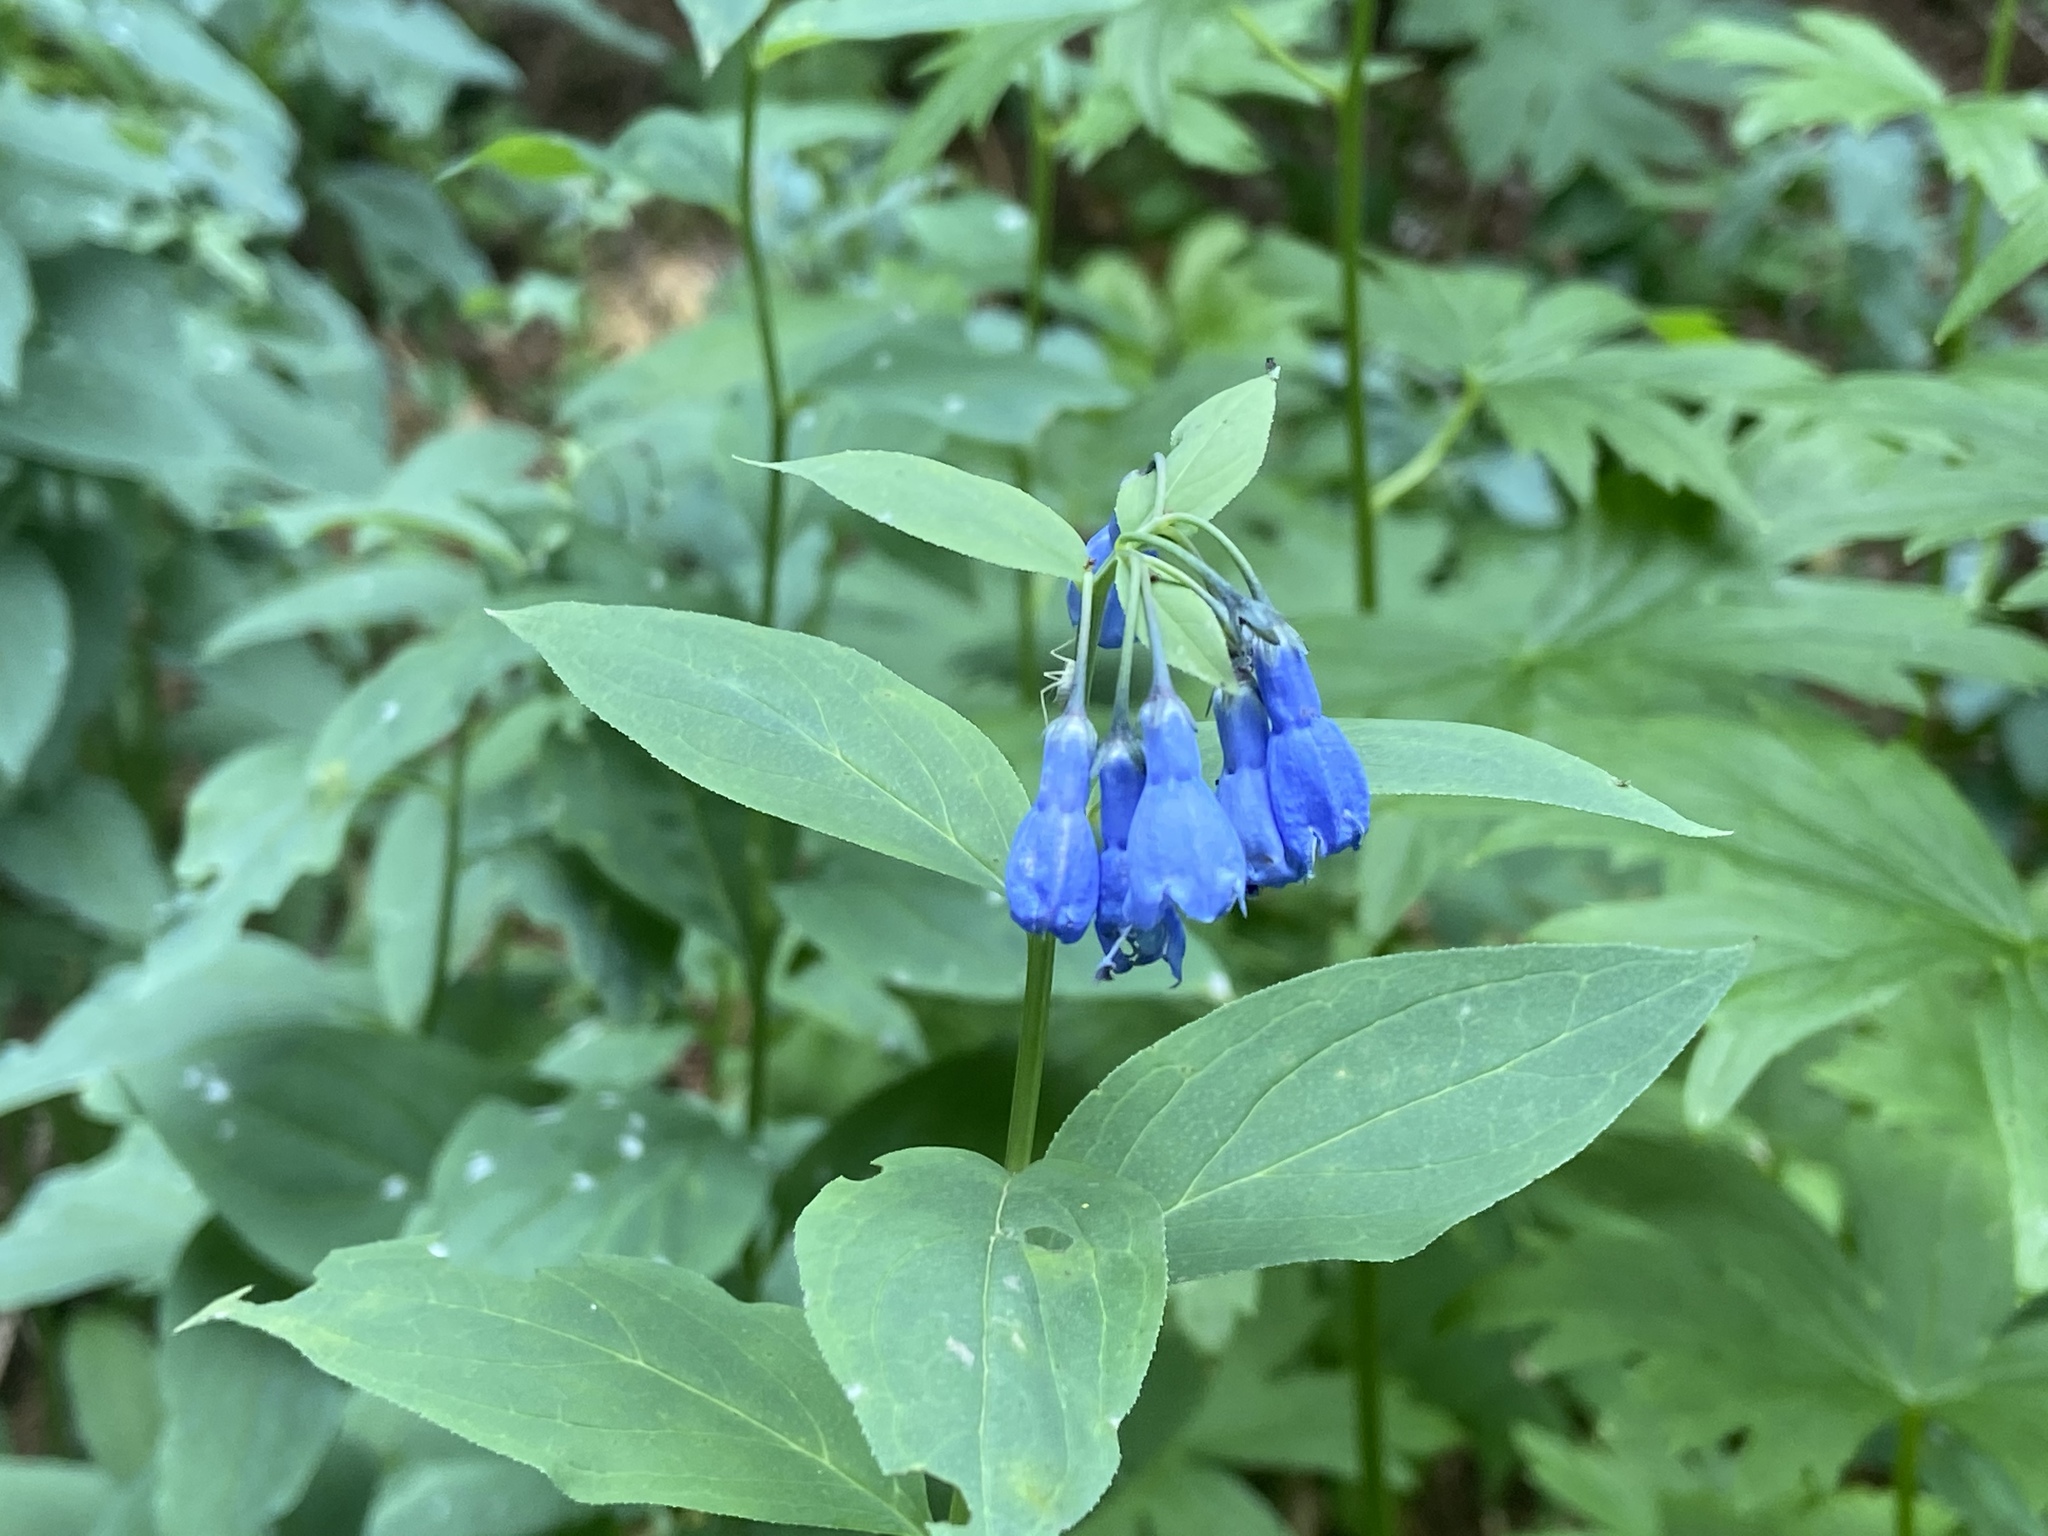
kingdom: Plantae
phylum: Tracheophyta
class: Magnoliopsida
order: Boraginales
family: Boraginaceae
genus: Mertensia
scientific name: Mertensia ciliata
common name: Tall chiming-bells
